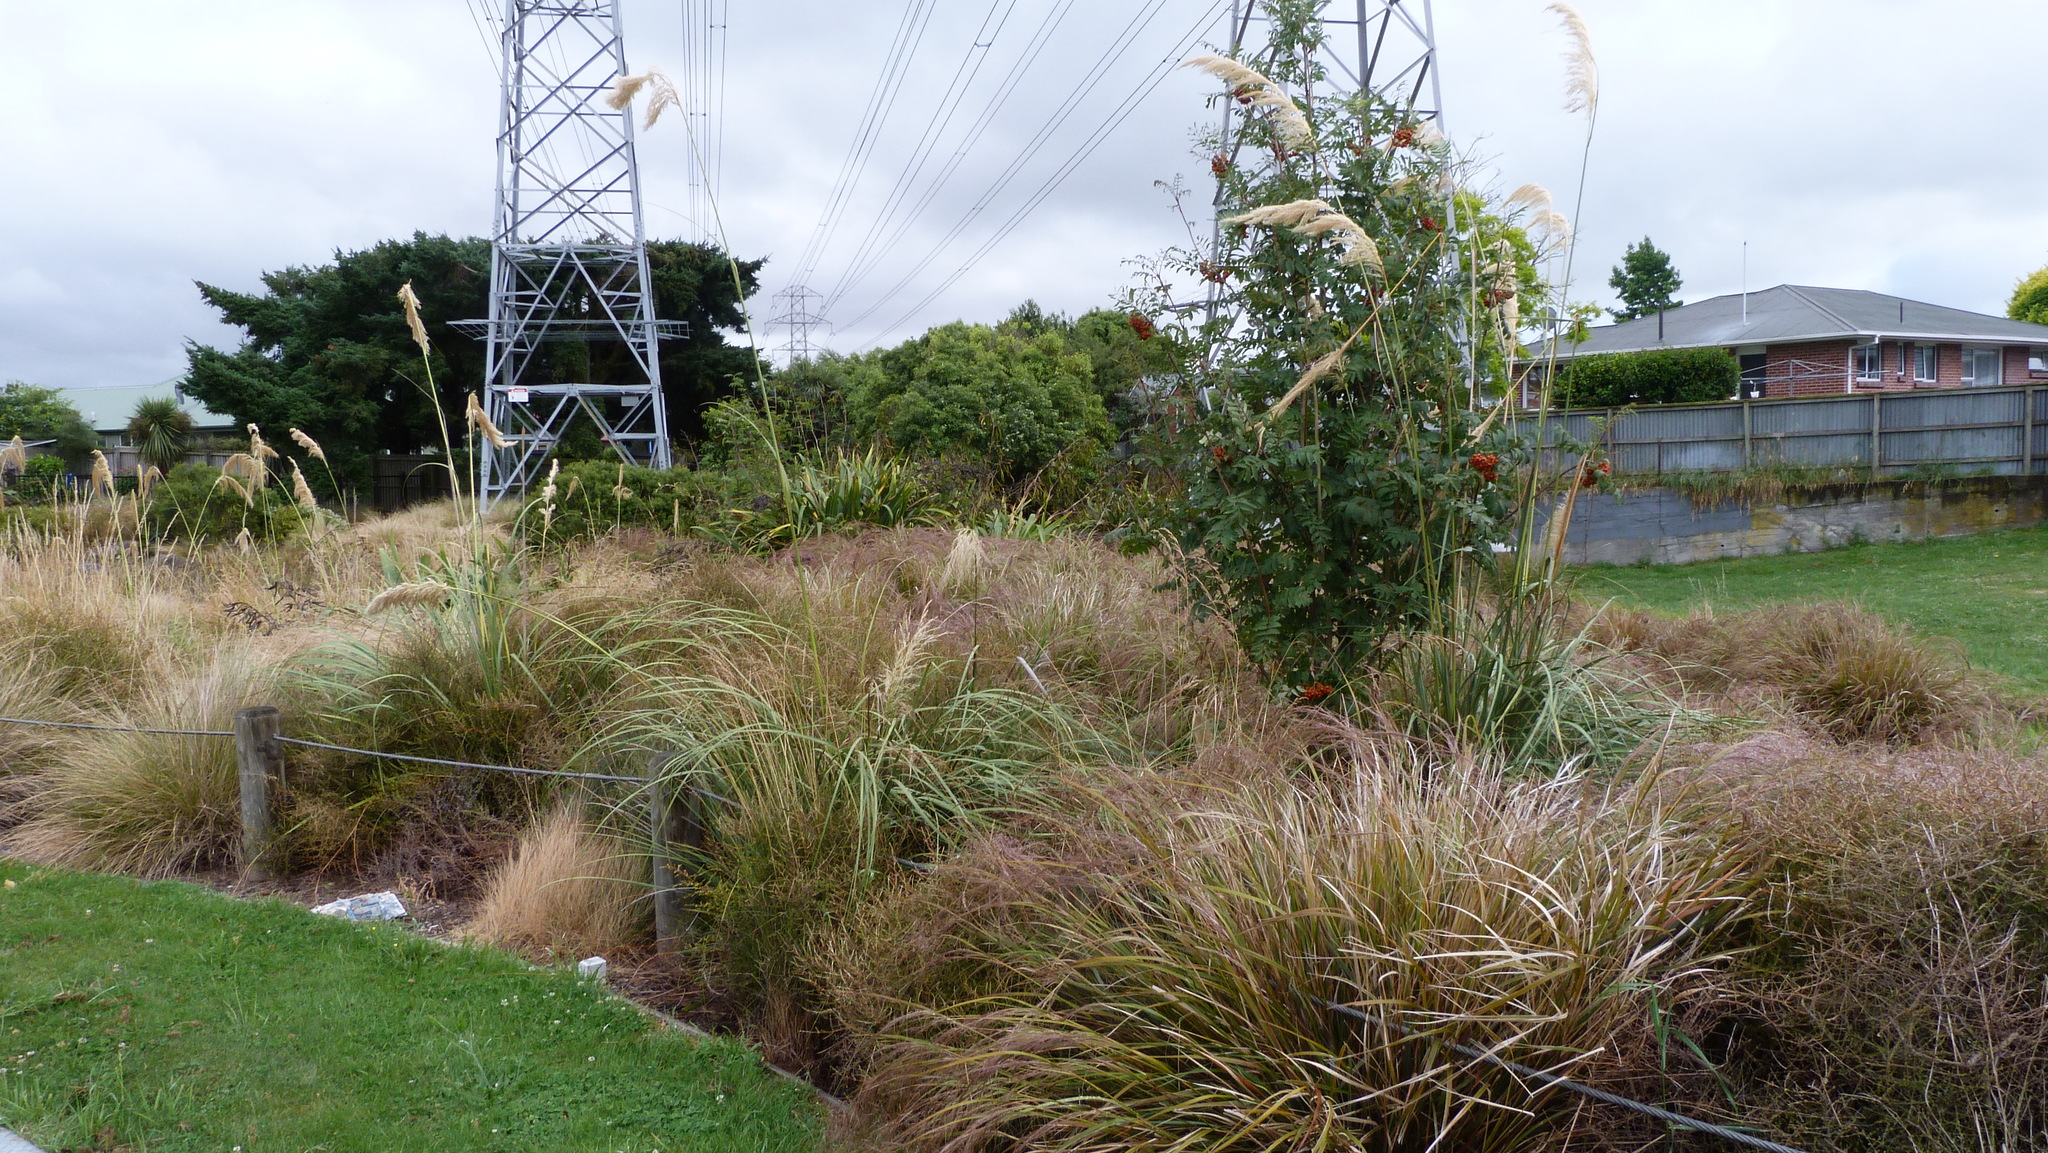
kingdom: Plantae
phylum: Tracheophyta
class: Magnoliopsida
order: Rosales
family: Rosaceae
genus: Sorbus
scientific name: Sorbus aucuparia
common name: Rowan
